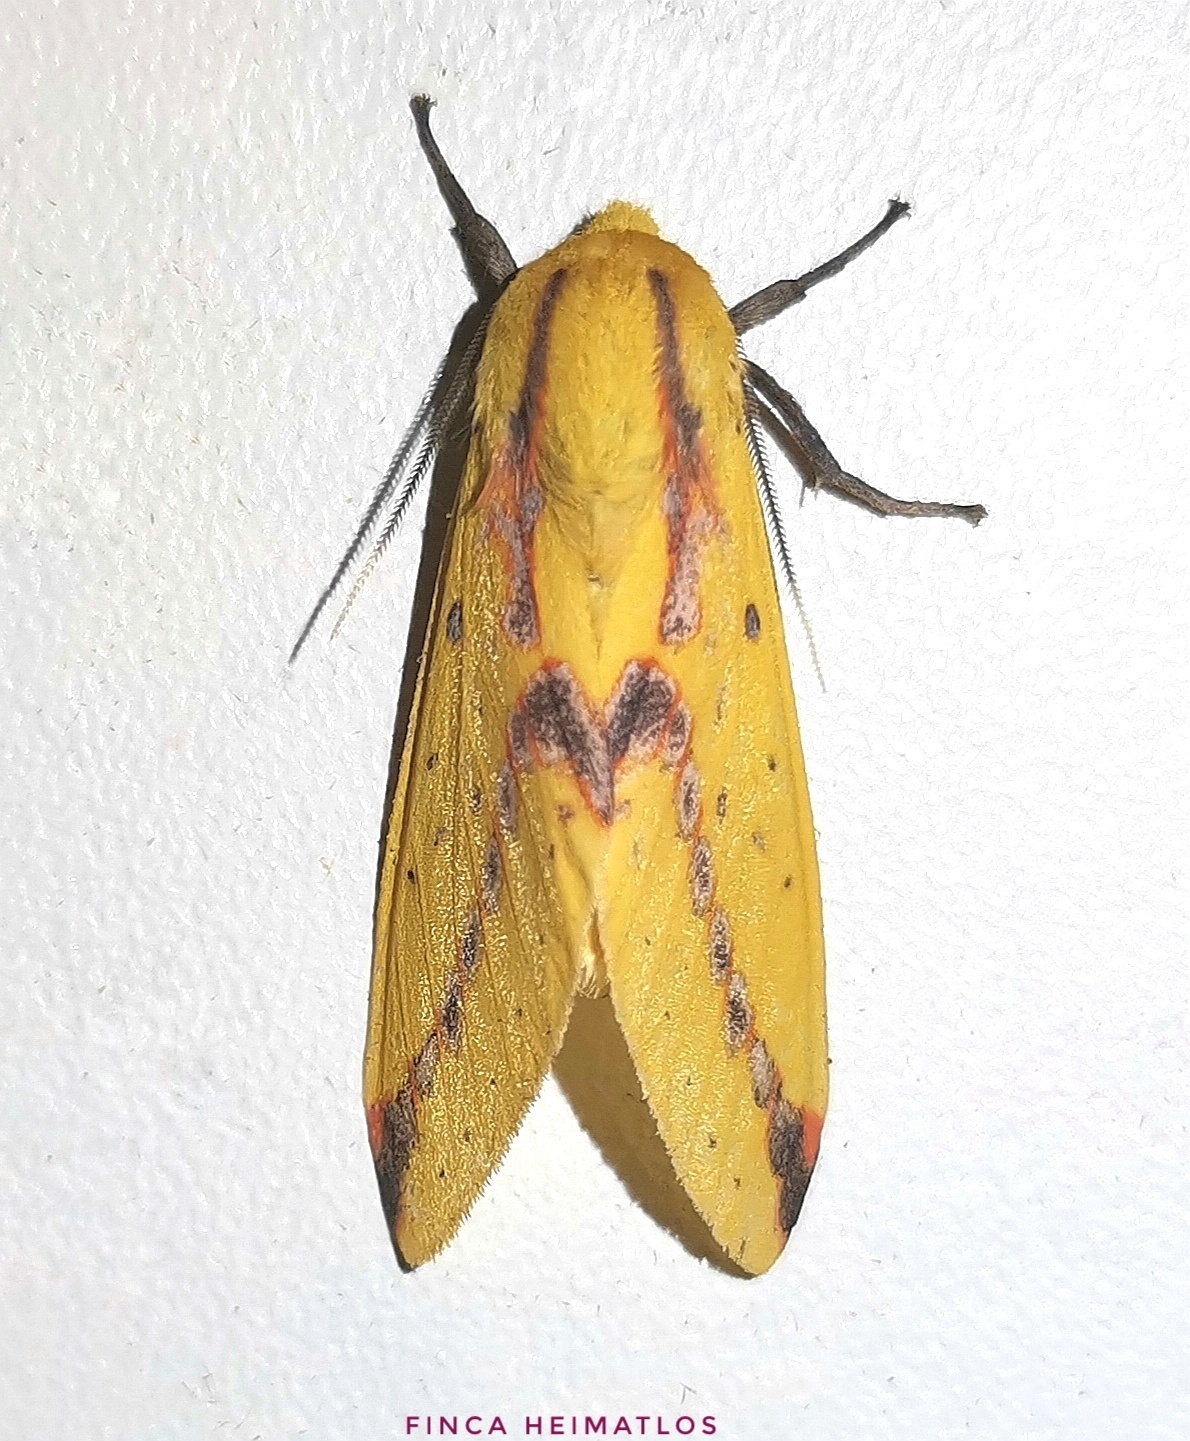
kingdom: Animalia
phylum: Arthropoda
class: Insecta
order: Lepidoptera
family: Erebidae
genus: Symphlebia
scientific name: Symphlebia suanus
